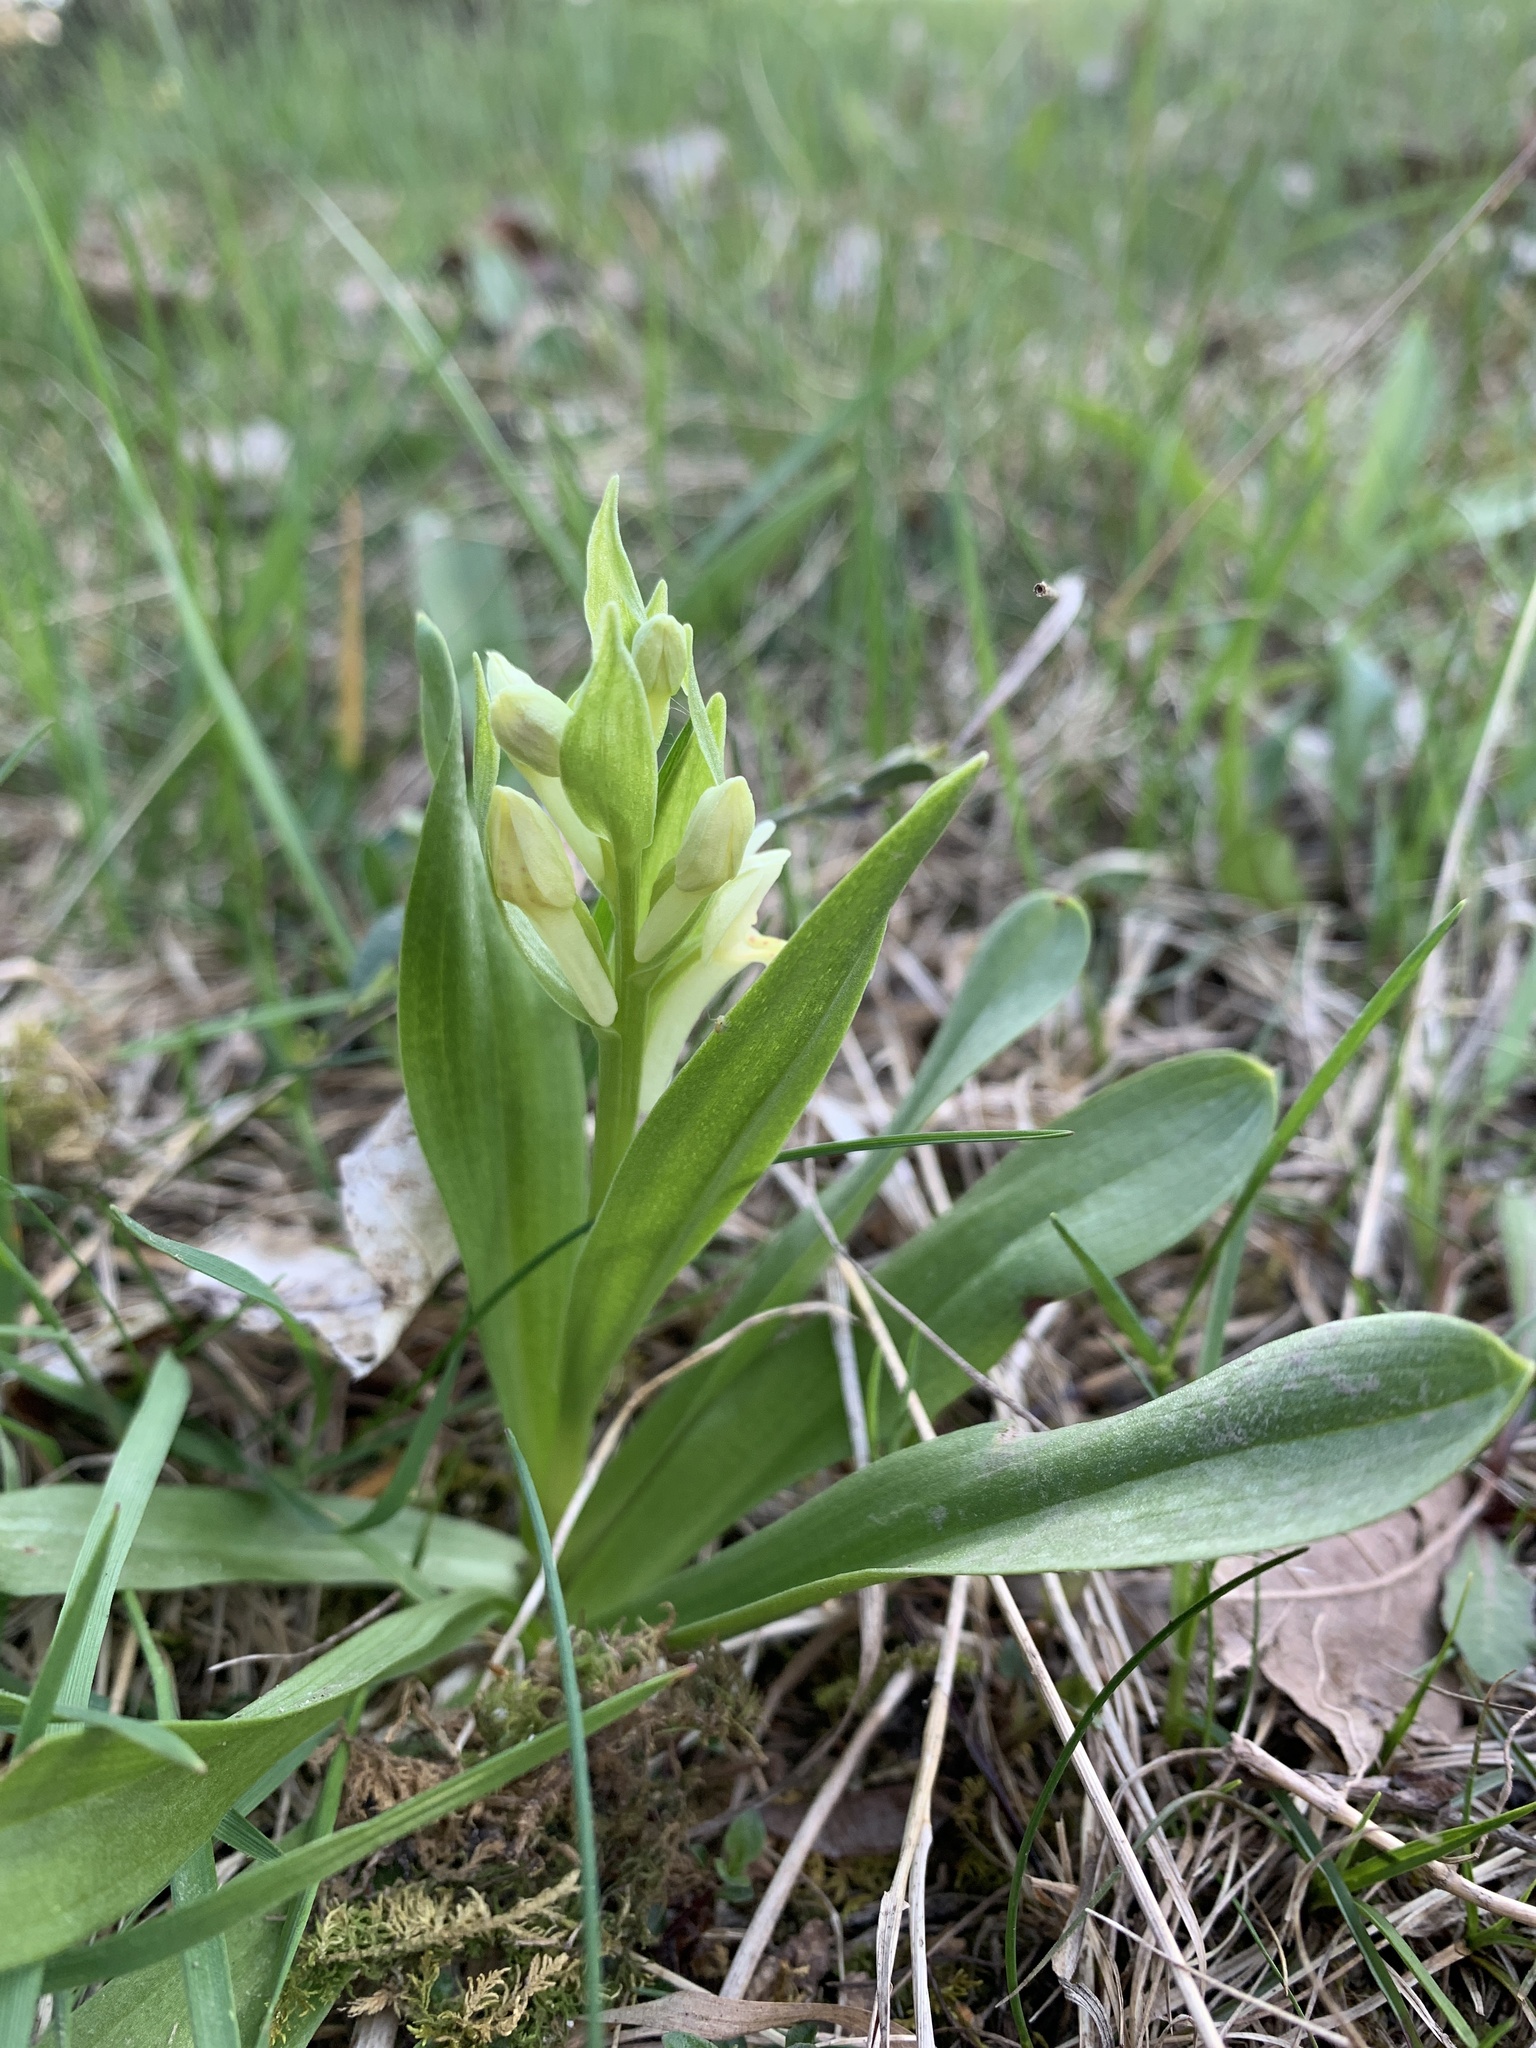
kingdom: Plantae
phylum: Tracheophyta
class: Liliopsida
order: Asparagales
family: Orchidaceae
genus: Dactylorhiza
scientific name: Dactylorhiza sambucina
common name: Elder-flowered orchid
